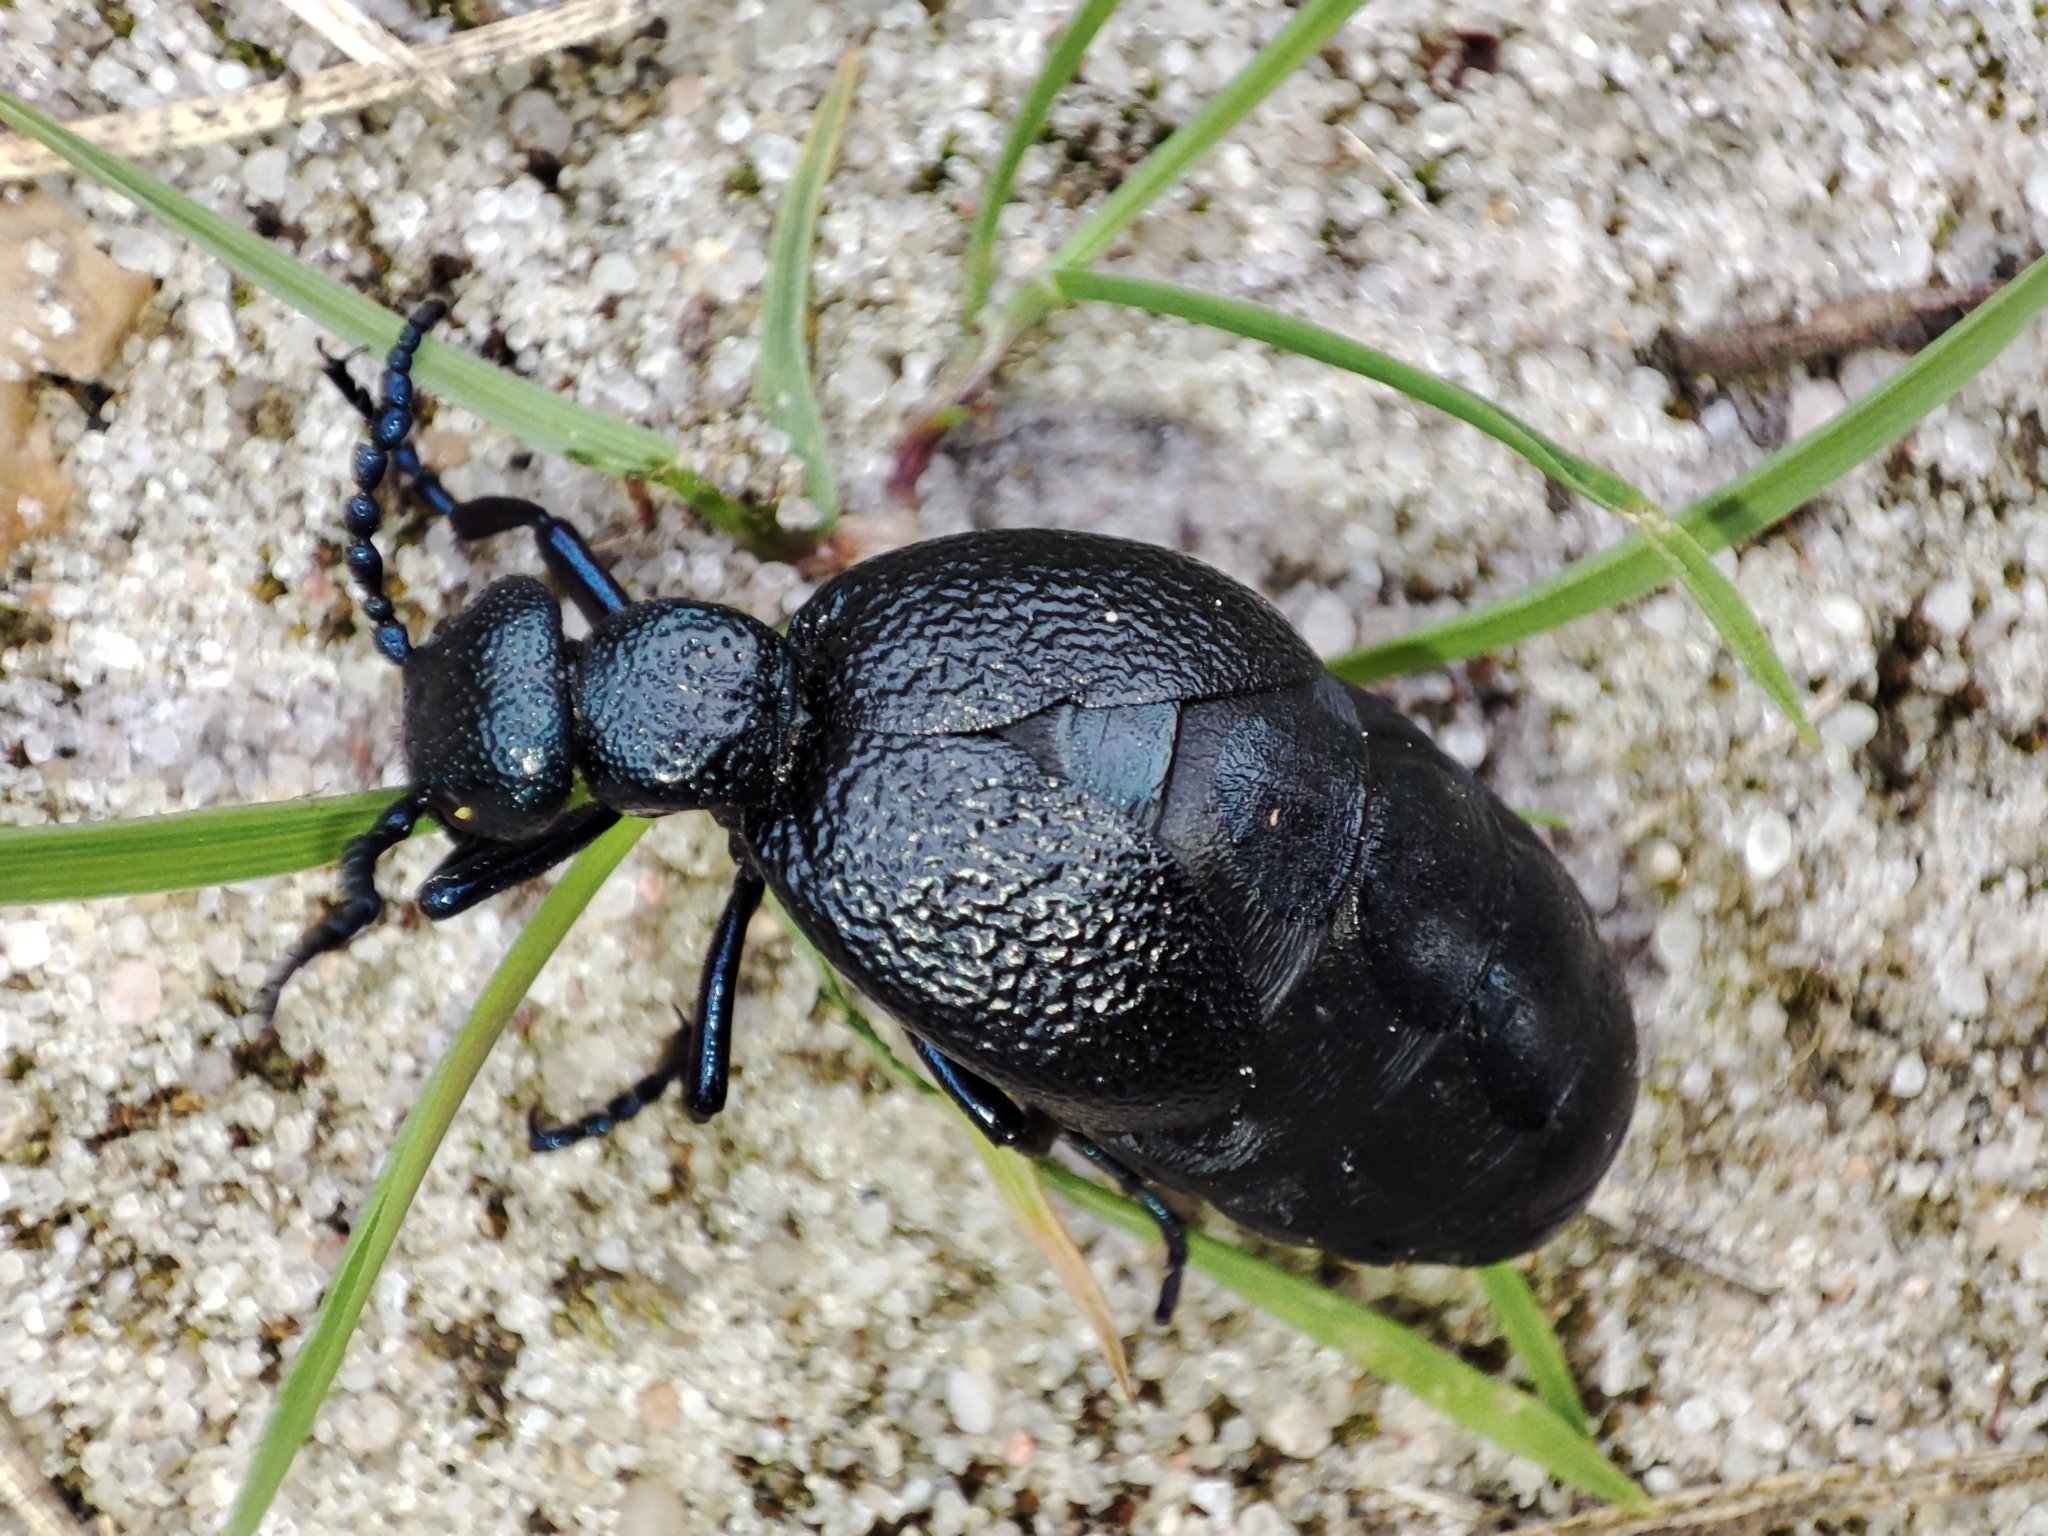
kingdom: Animalia
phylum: Arthropoda
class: Insecta
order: Coleoptera
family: Meloidae
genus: Meloe
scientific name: Meloe proscarabaeus
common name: Black oil-beetle
